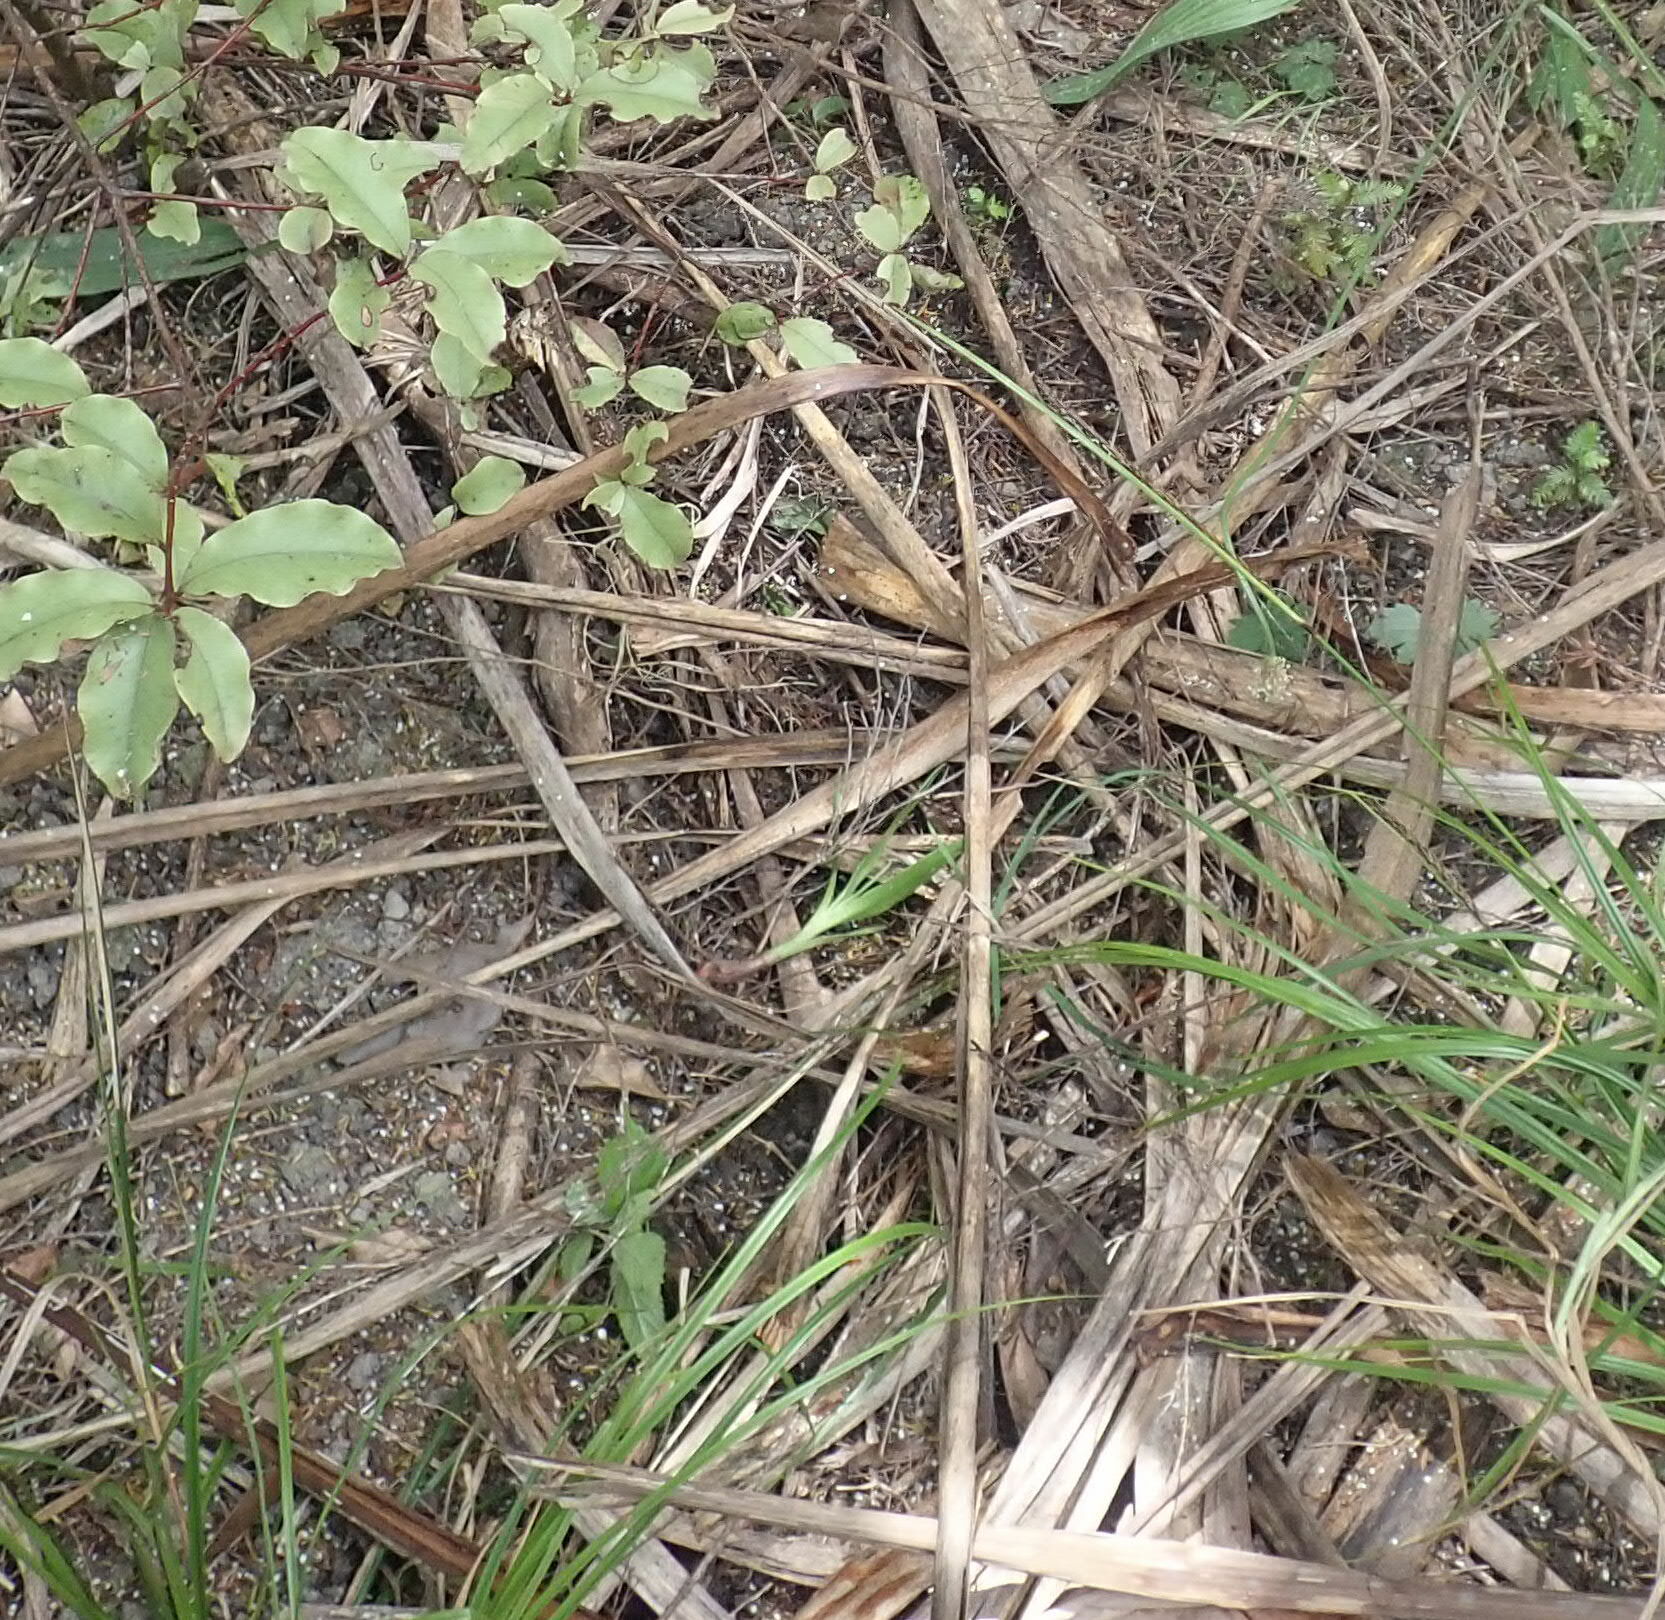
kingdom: Plantae
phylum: Tracheophyta
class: Liliopsida
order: Asparagales
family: Asparagaceae
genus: Dracaena
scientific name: Dracaena draco
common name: Canary island dragon tree
